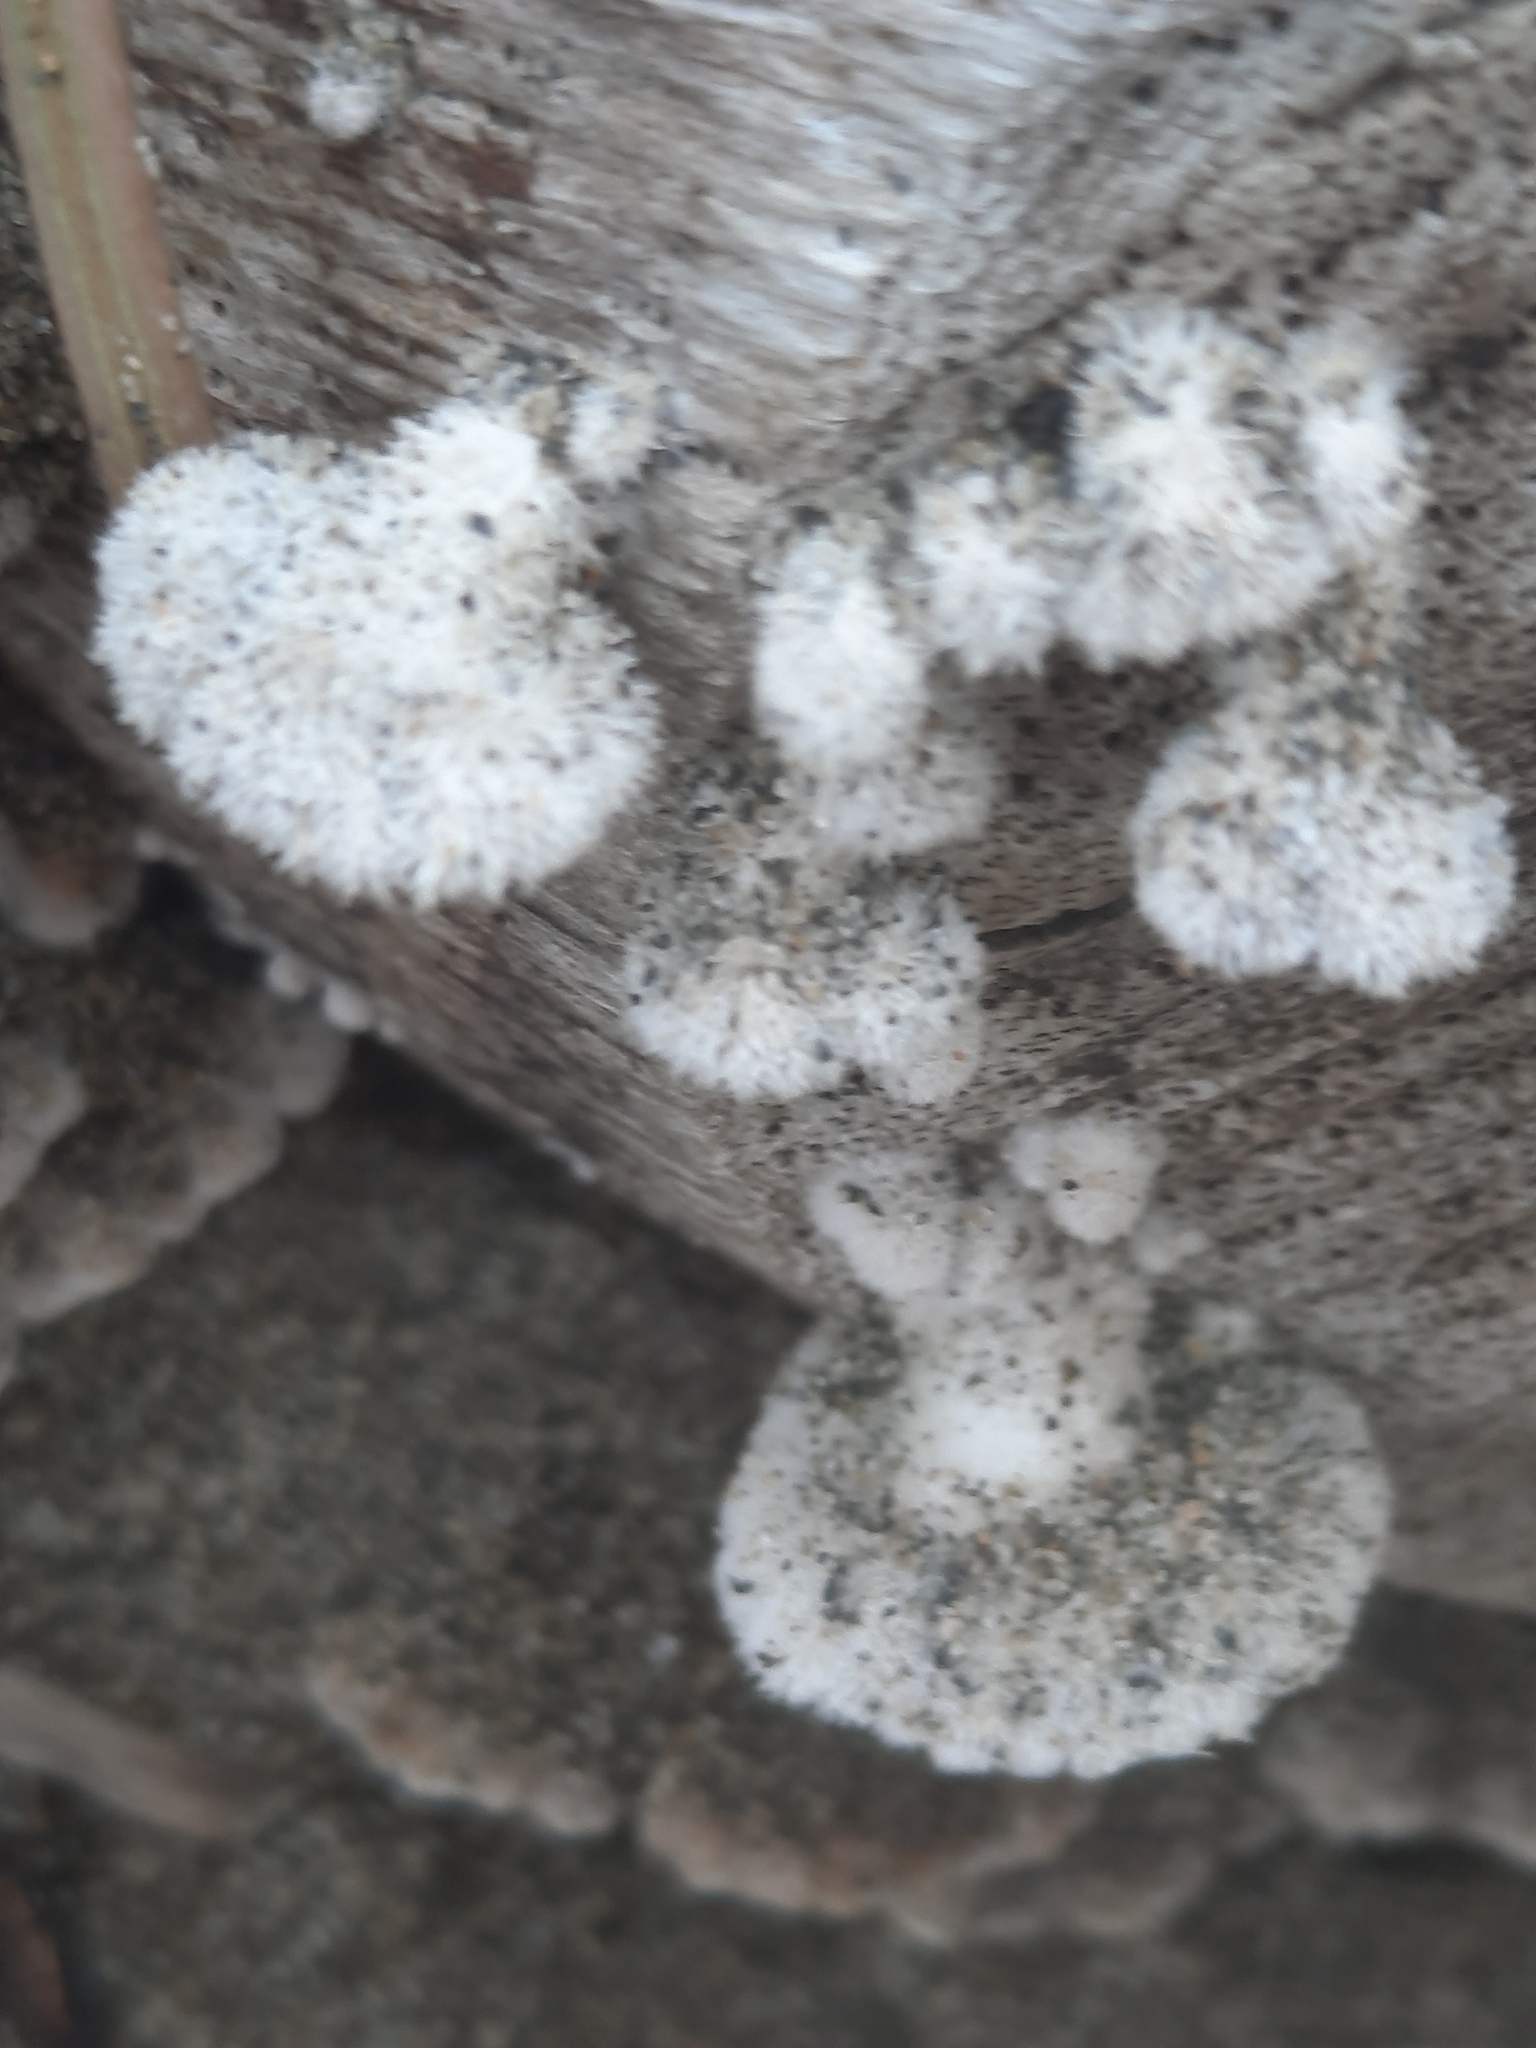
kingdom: Fungi
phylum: Basidiomycota
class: Agaricomycetes
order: Agaricales
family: Schizophyllaceae
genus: Schizophyllum
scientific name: Schizophyllum commune
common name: Common porecrust
